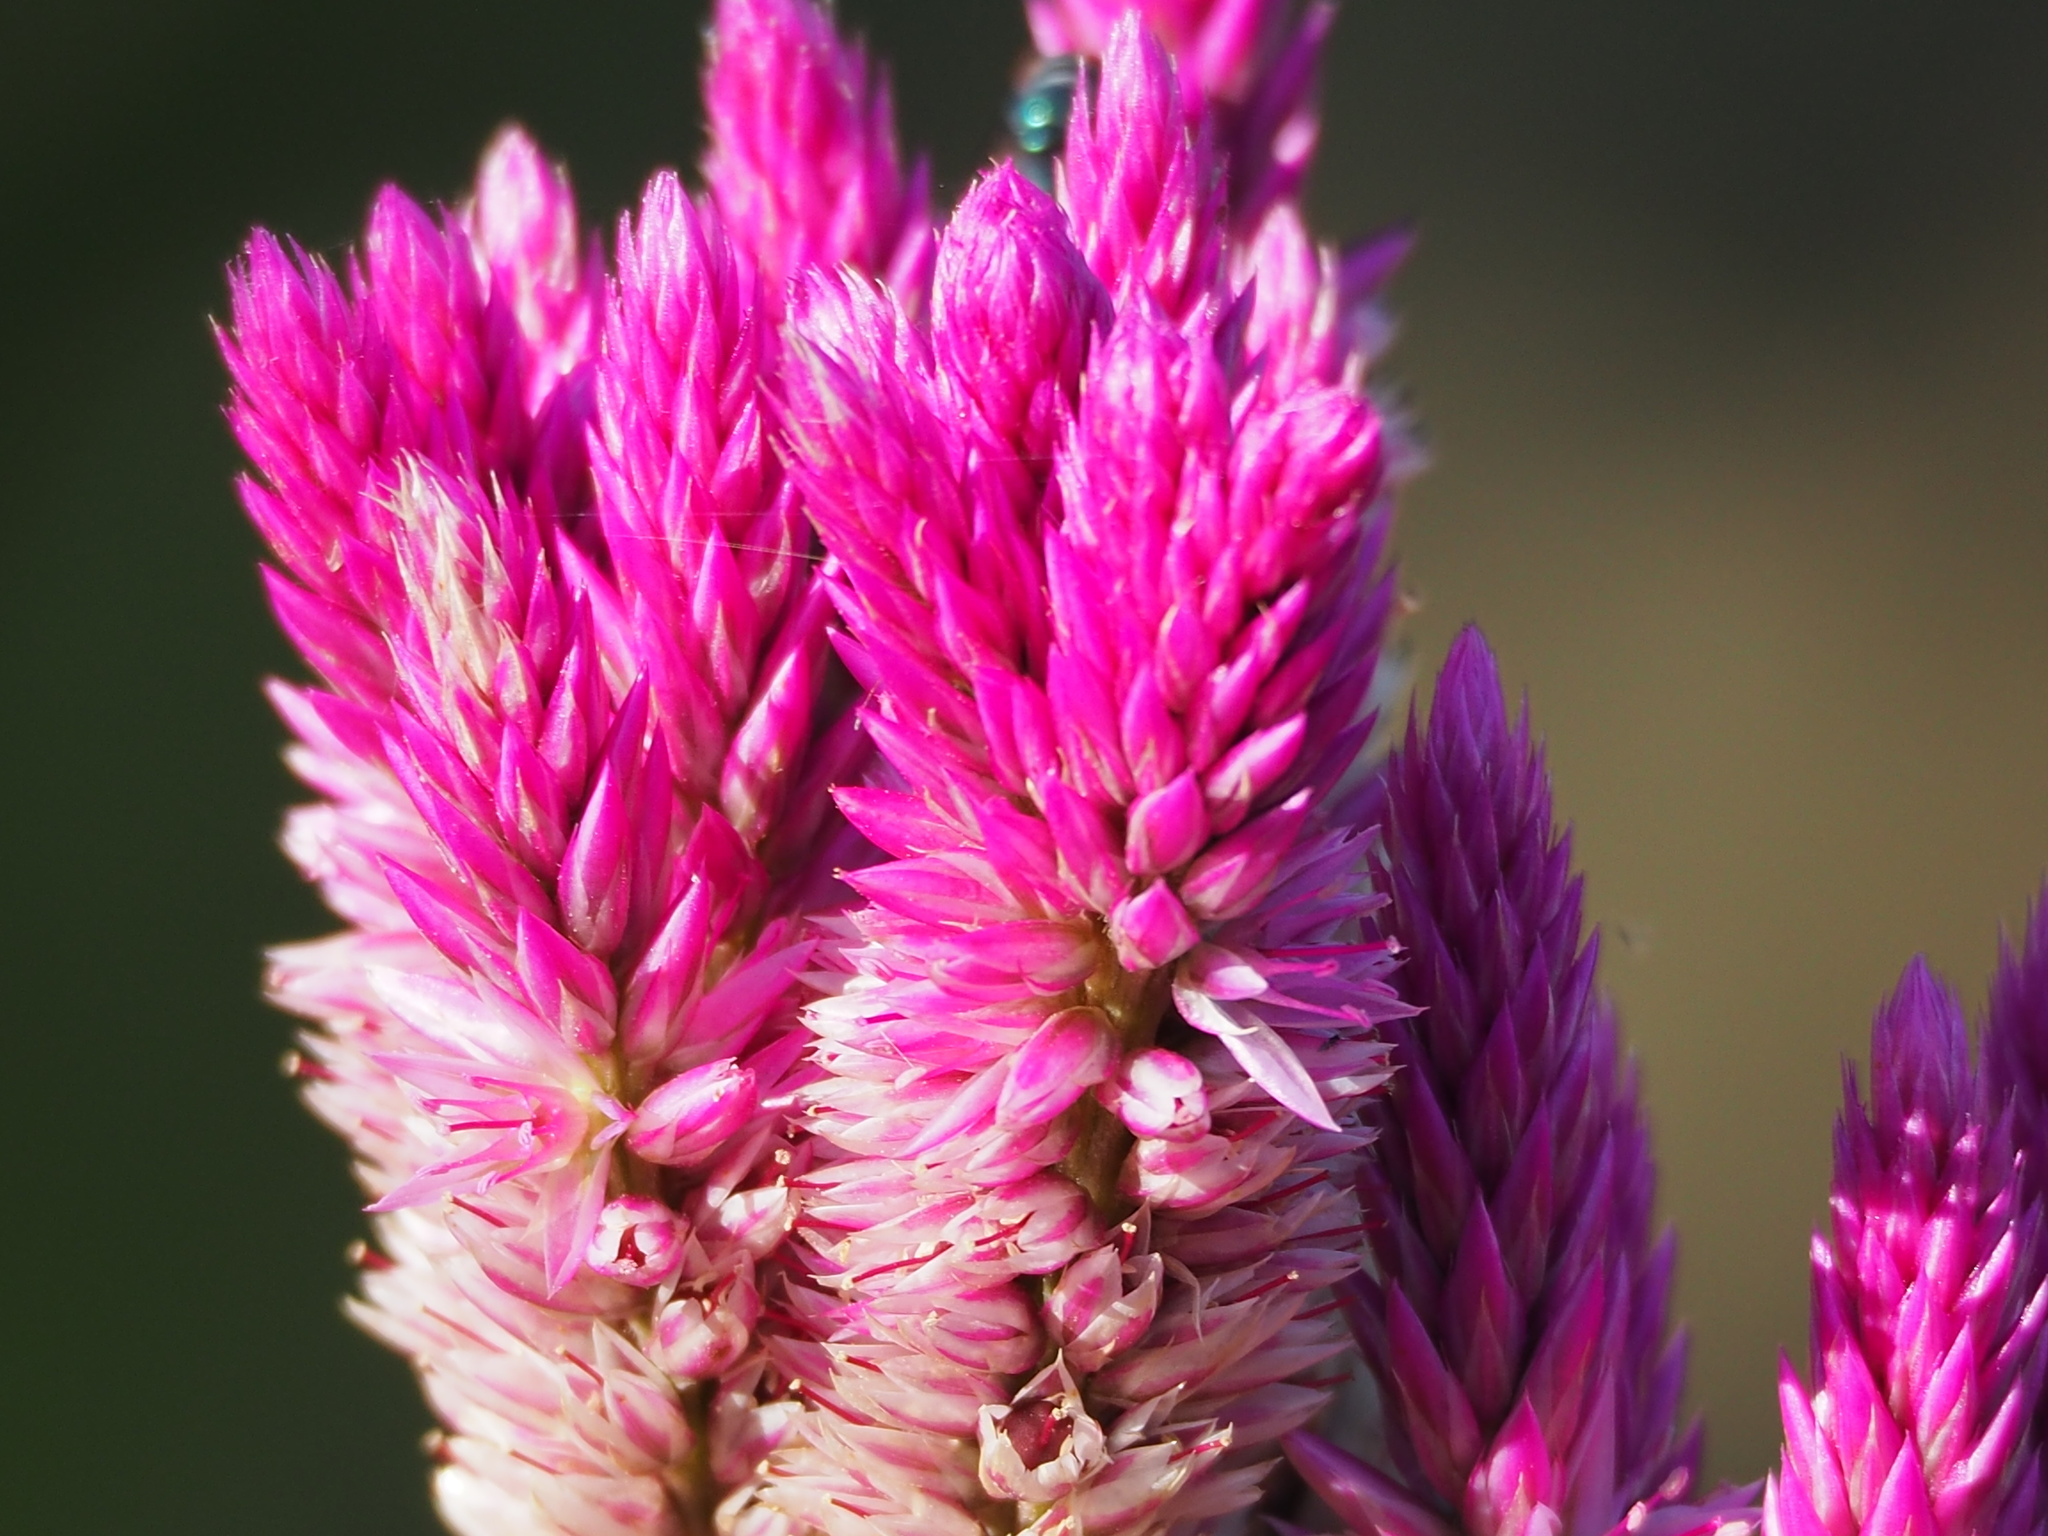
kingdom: Plantae
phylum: Tracheophyta
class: Magnoliopsida
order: Caryophyllales
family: Amaranthaceae
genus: Celosia
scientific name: Celosia argentea
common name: Feather cockscomb
